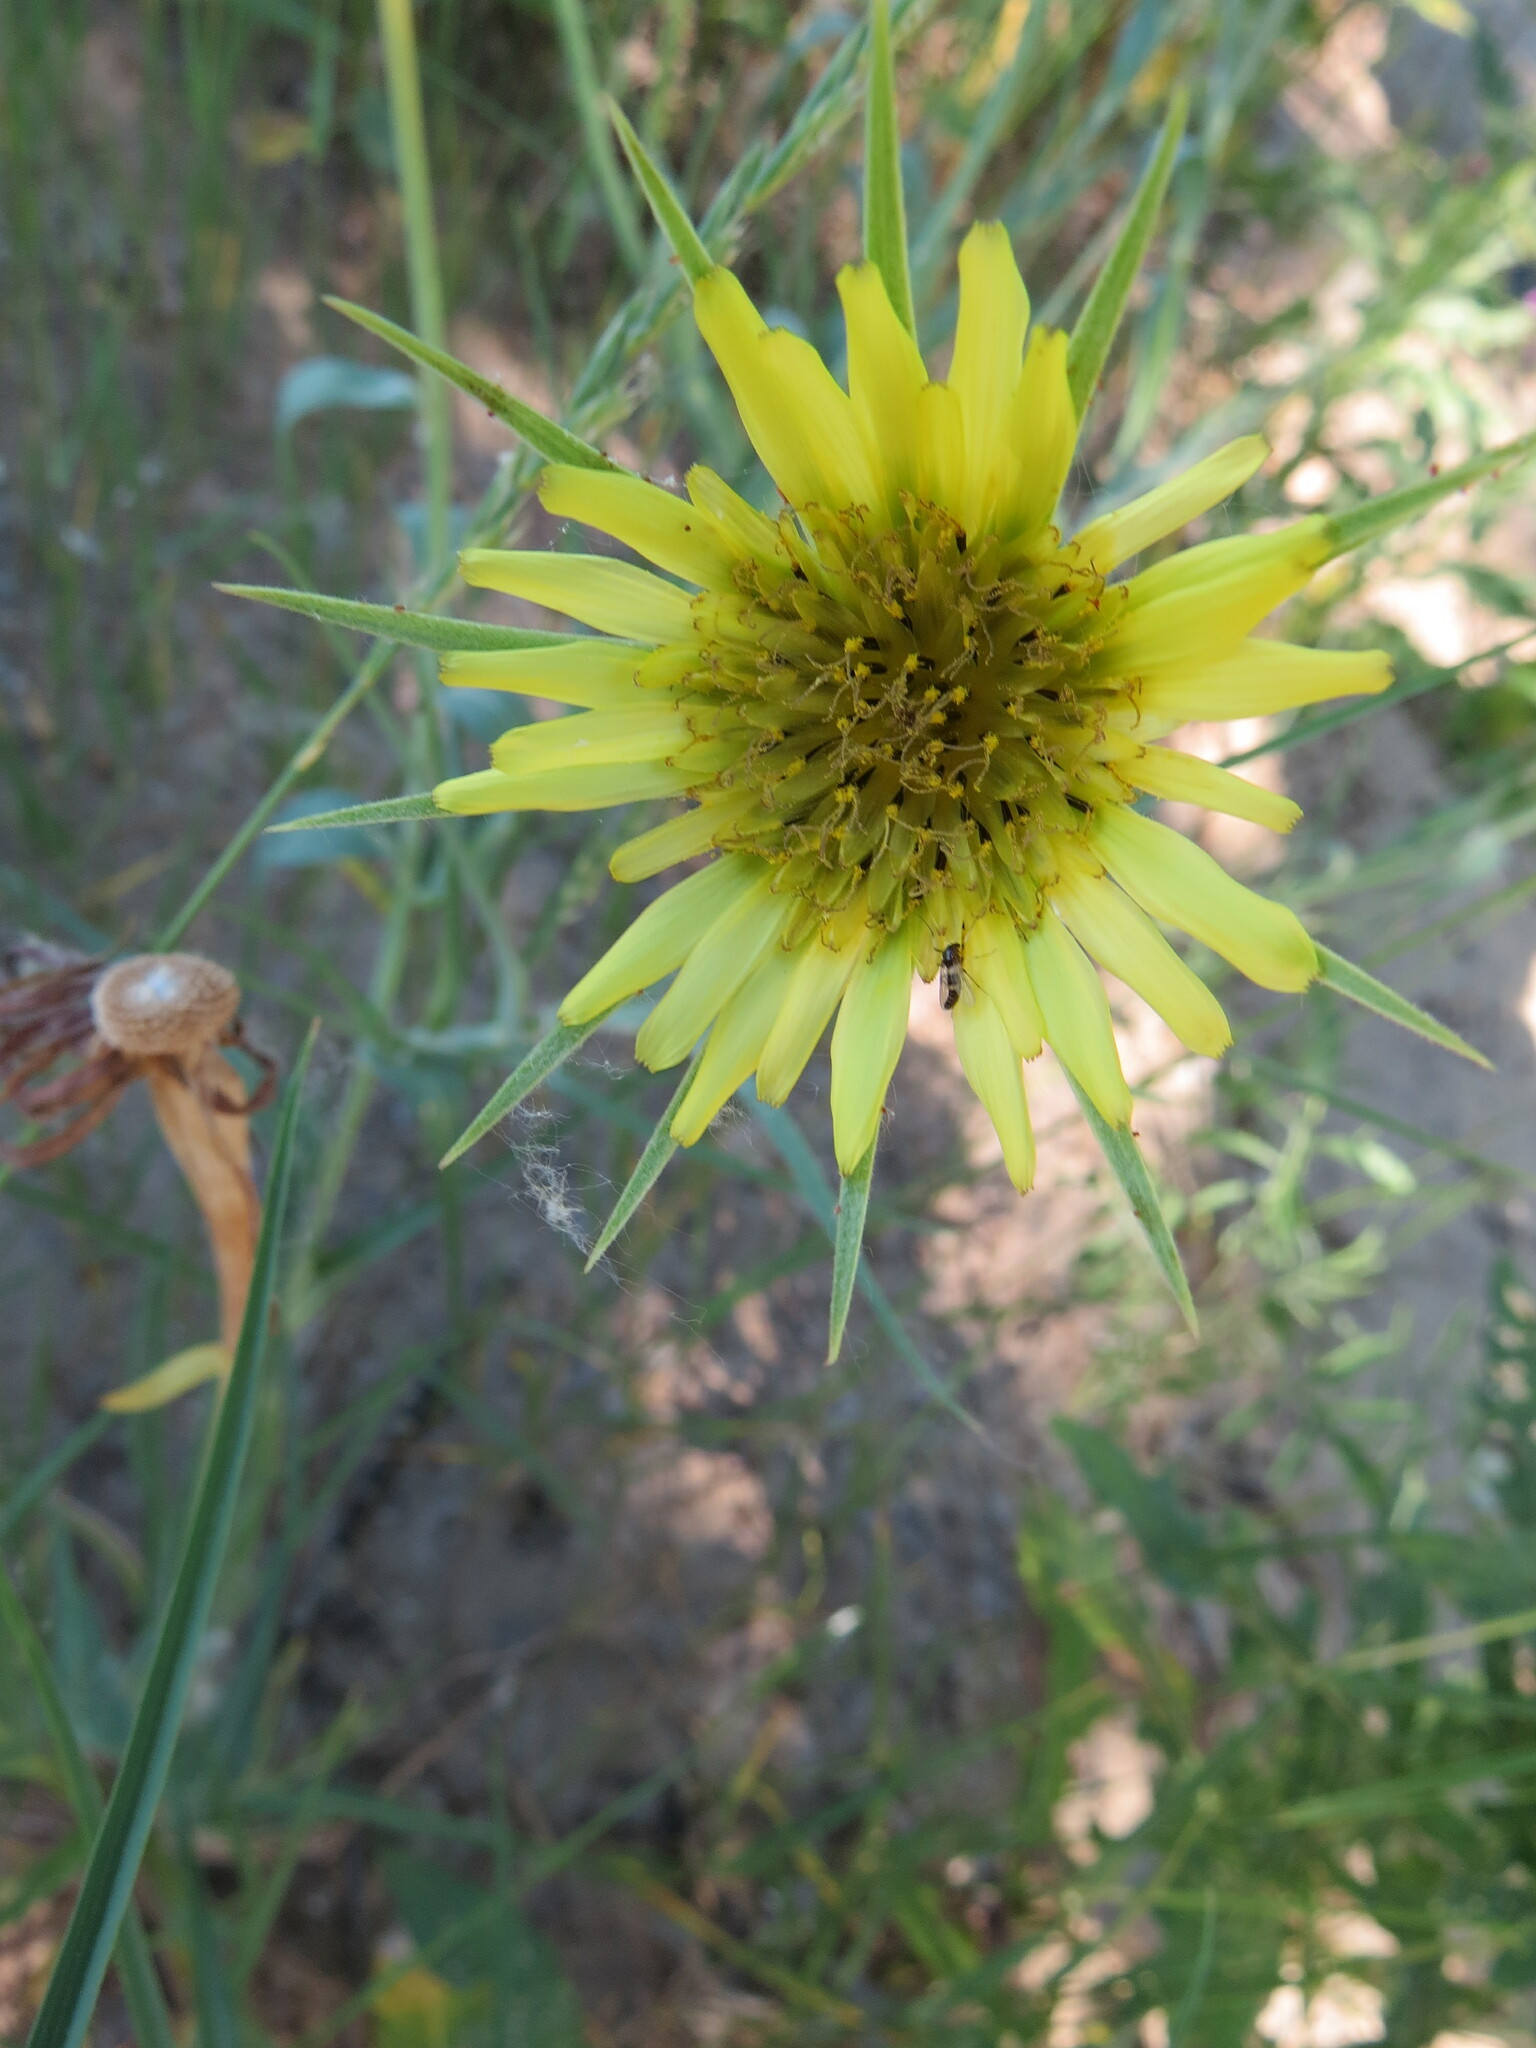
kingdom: Plantae
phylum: Tracheophyta
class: Magnoliopsida
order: Asterales
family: Asteraceae
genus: Tragopogon
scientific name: Tragopogon dubius
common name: Yellow salsify
